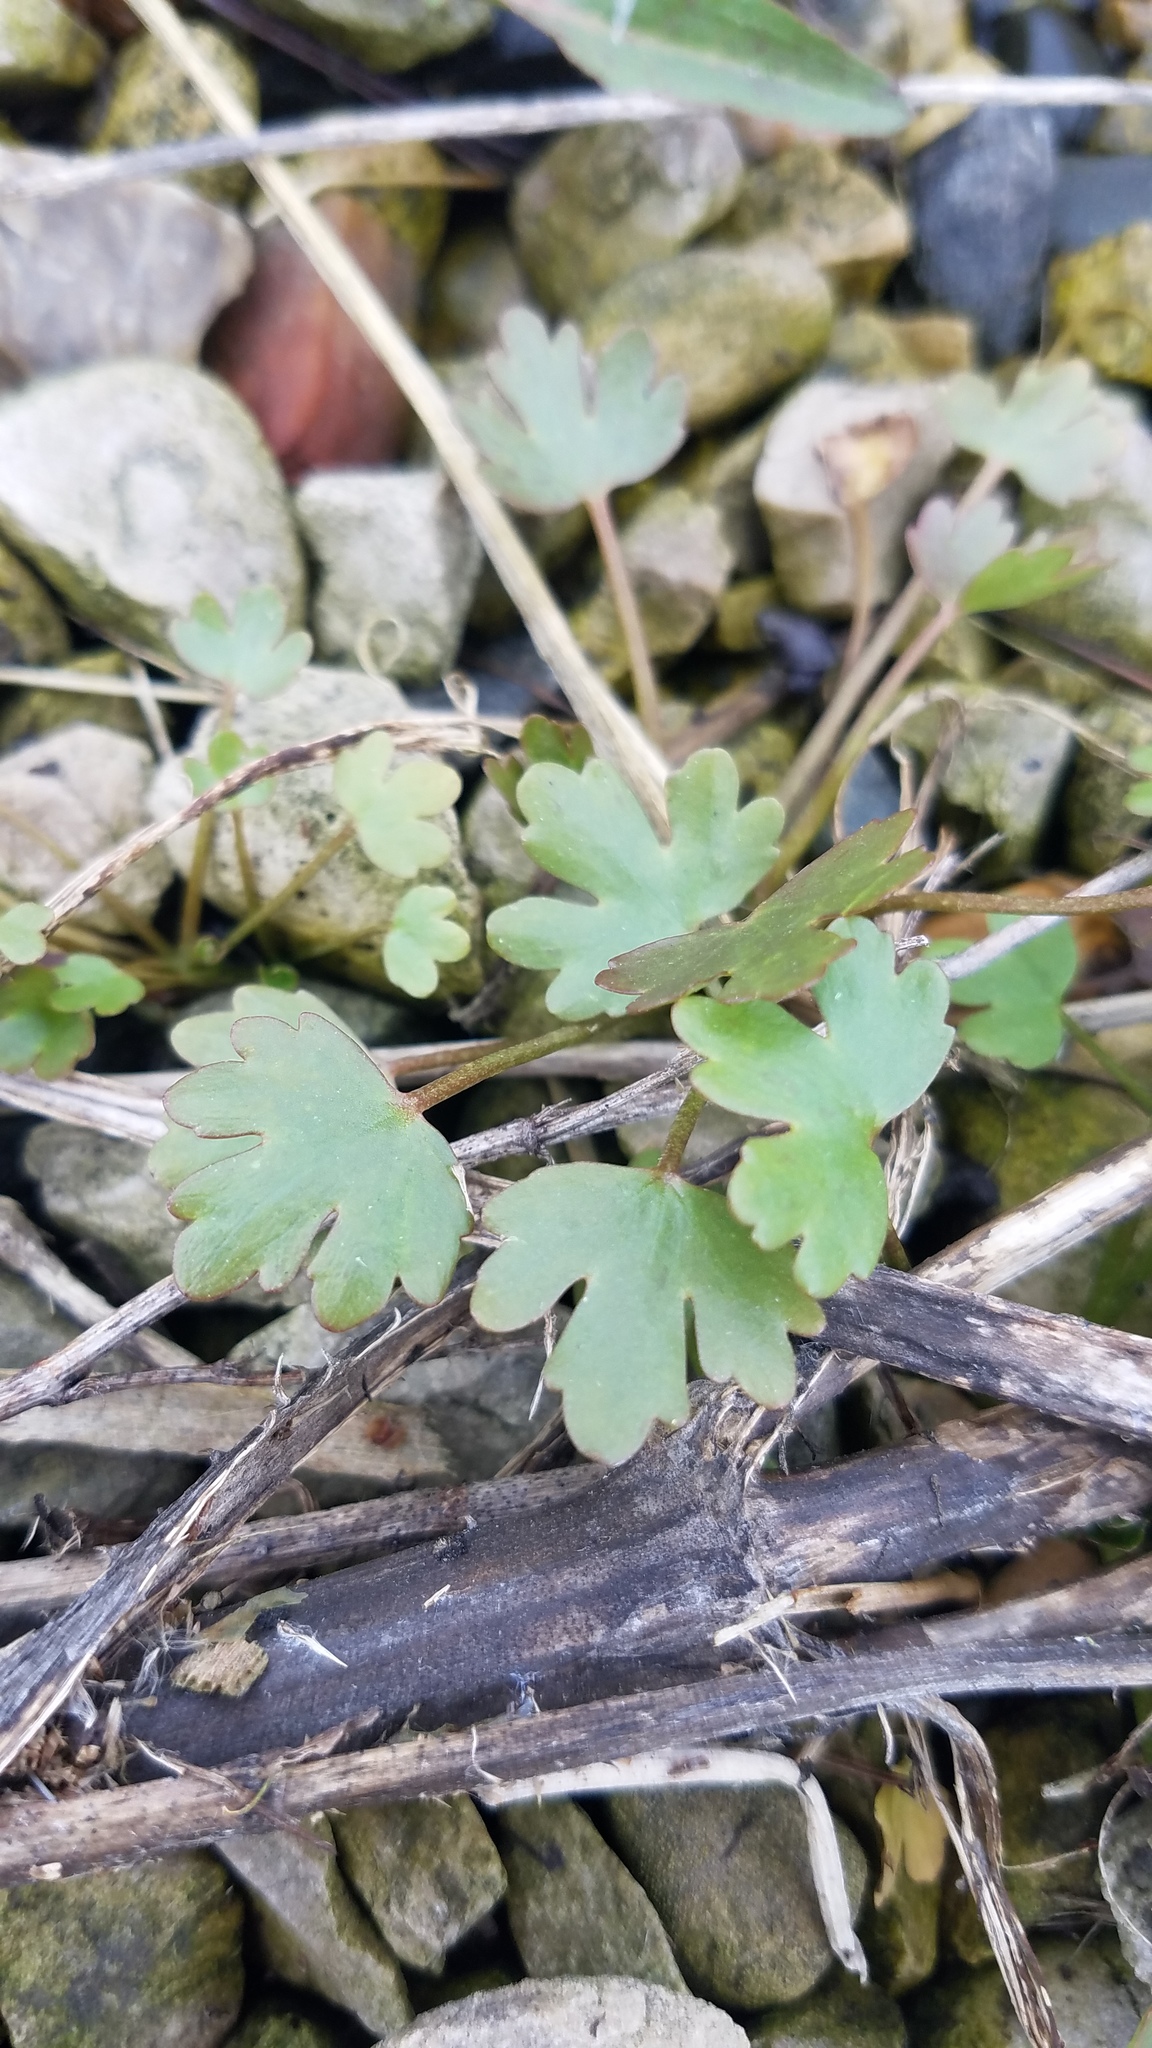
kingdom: Plantae
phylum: Tracheophyta
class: Magnoliopsida
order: Ranunculales
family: Ranunculaceae
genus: Ranunculus
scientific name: Ranunculus sceleratus
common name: Celery-leaved buttercup
